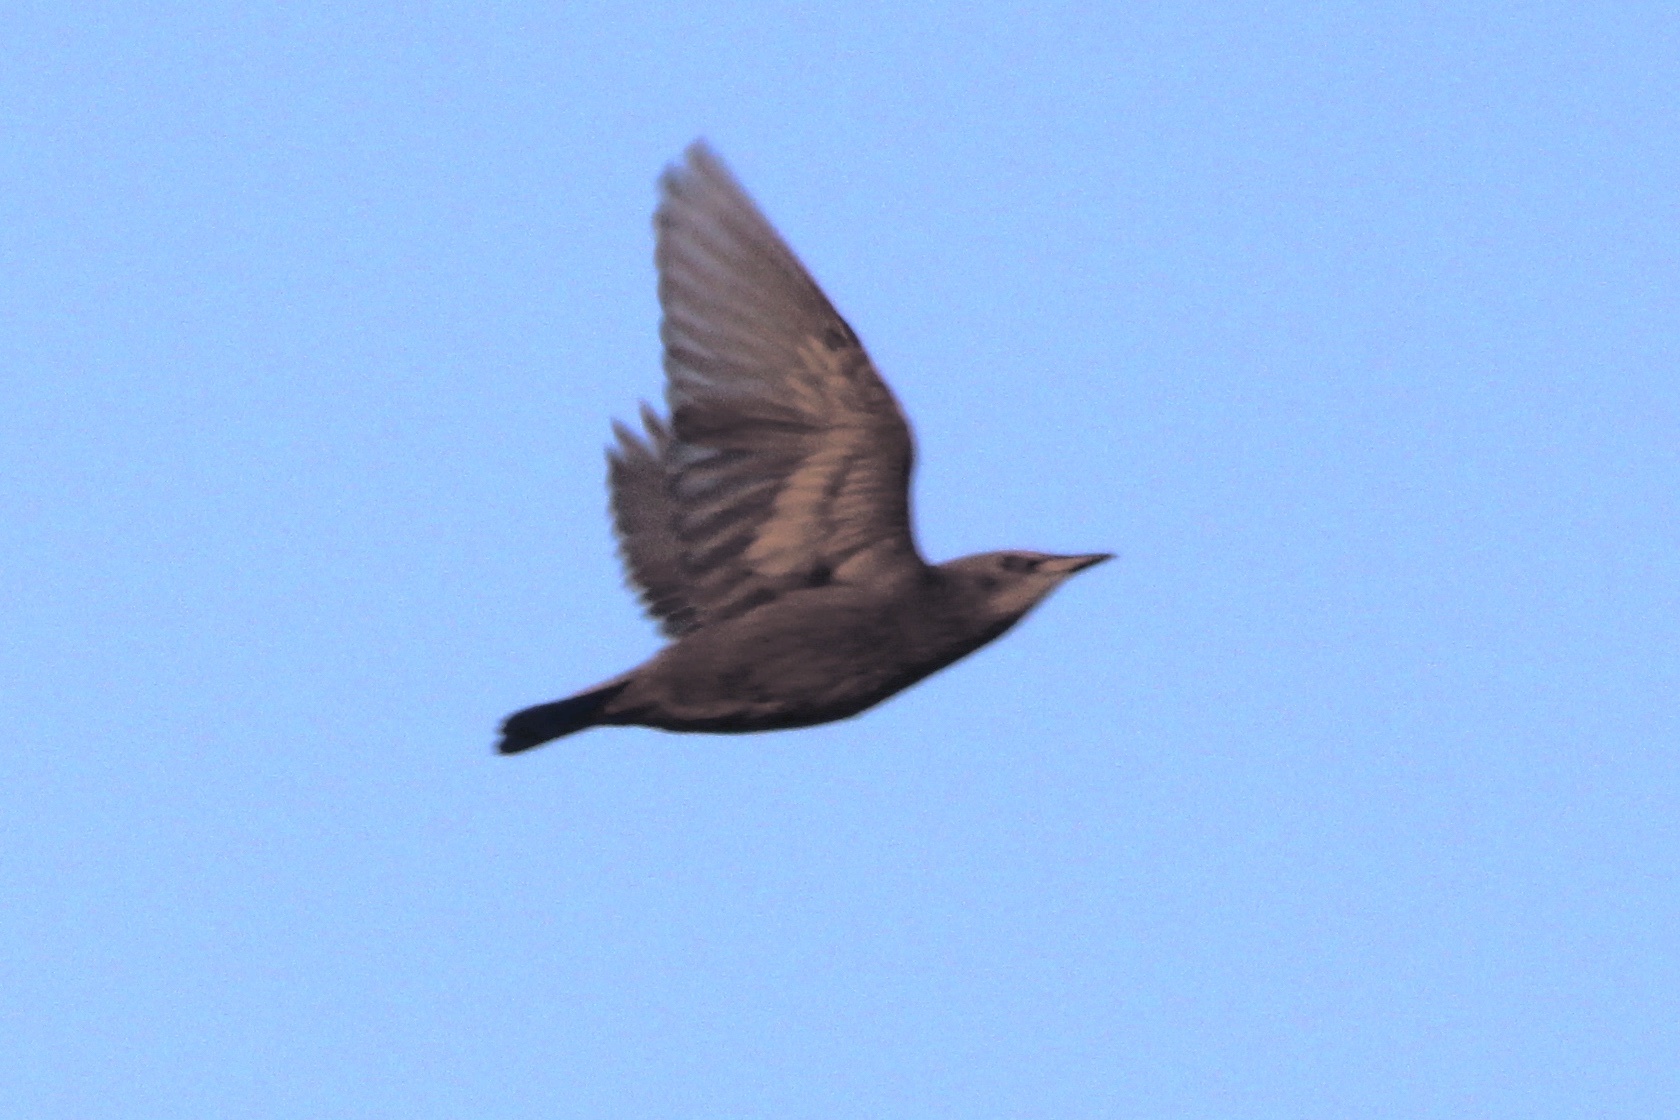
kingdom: Animalia
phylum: Chordata
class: Aves
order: Passeriformes
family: Sturnidae
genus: Sturnus
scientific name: Sturnus vulgaris
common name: Common starling
